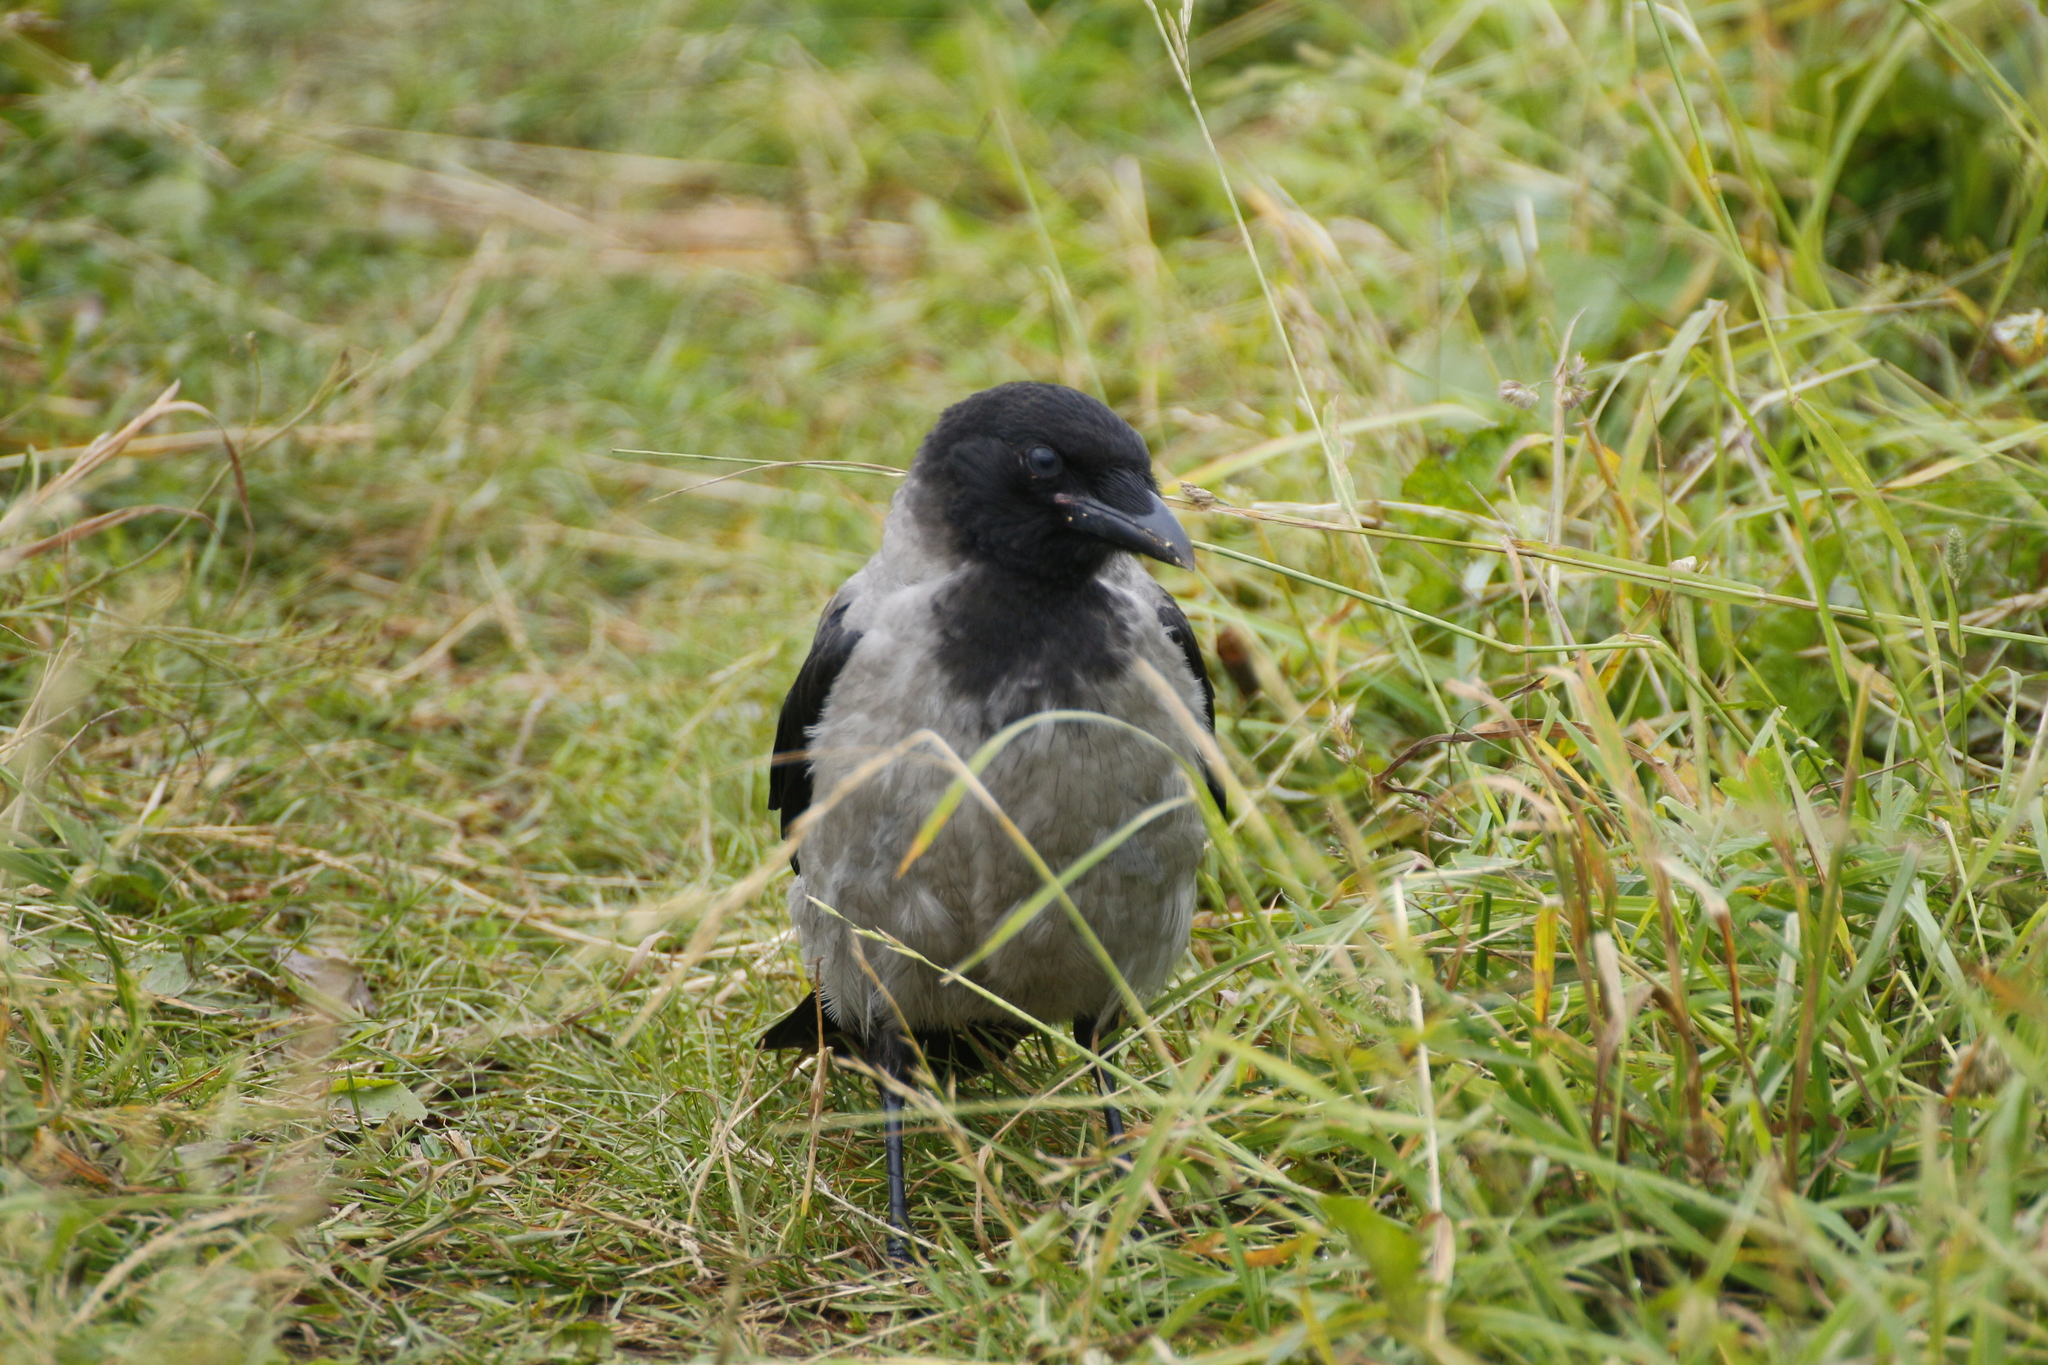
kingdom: Animalia
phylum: Chordata
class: Aves
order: Passeriformes
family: Corvidae
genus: Corvus
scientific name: Corvus cornix
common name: Hooded crow
